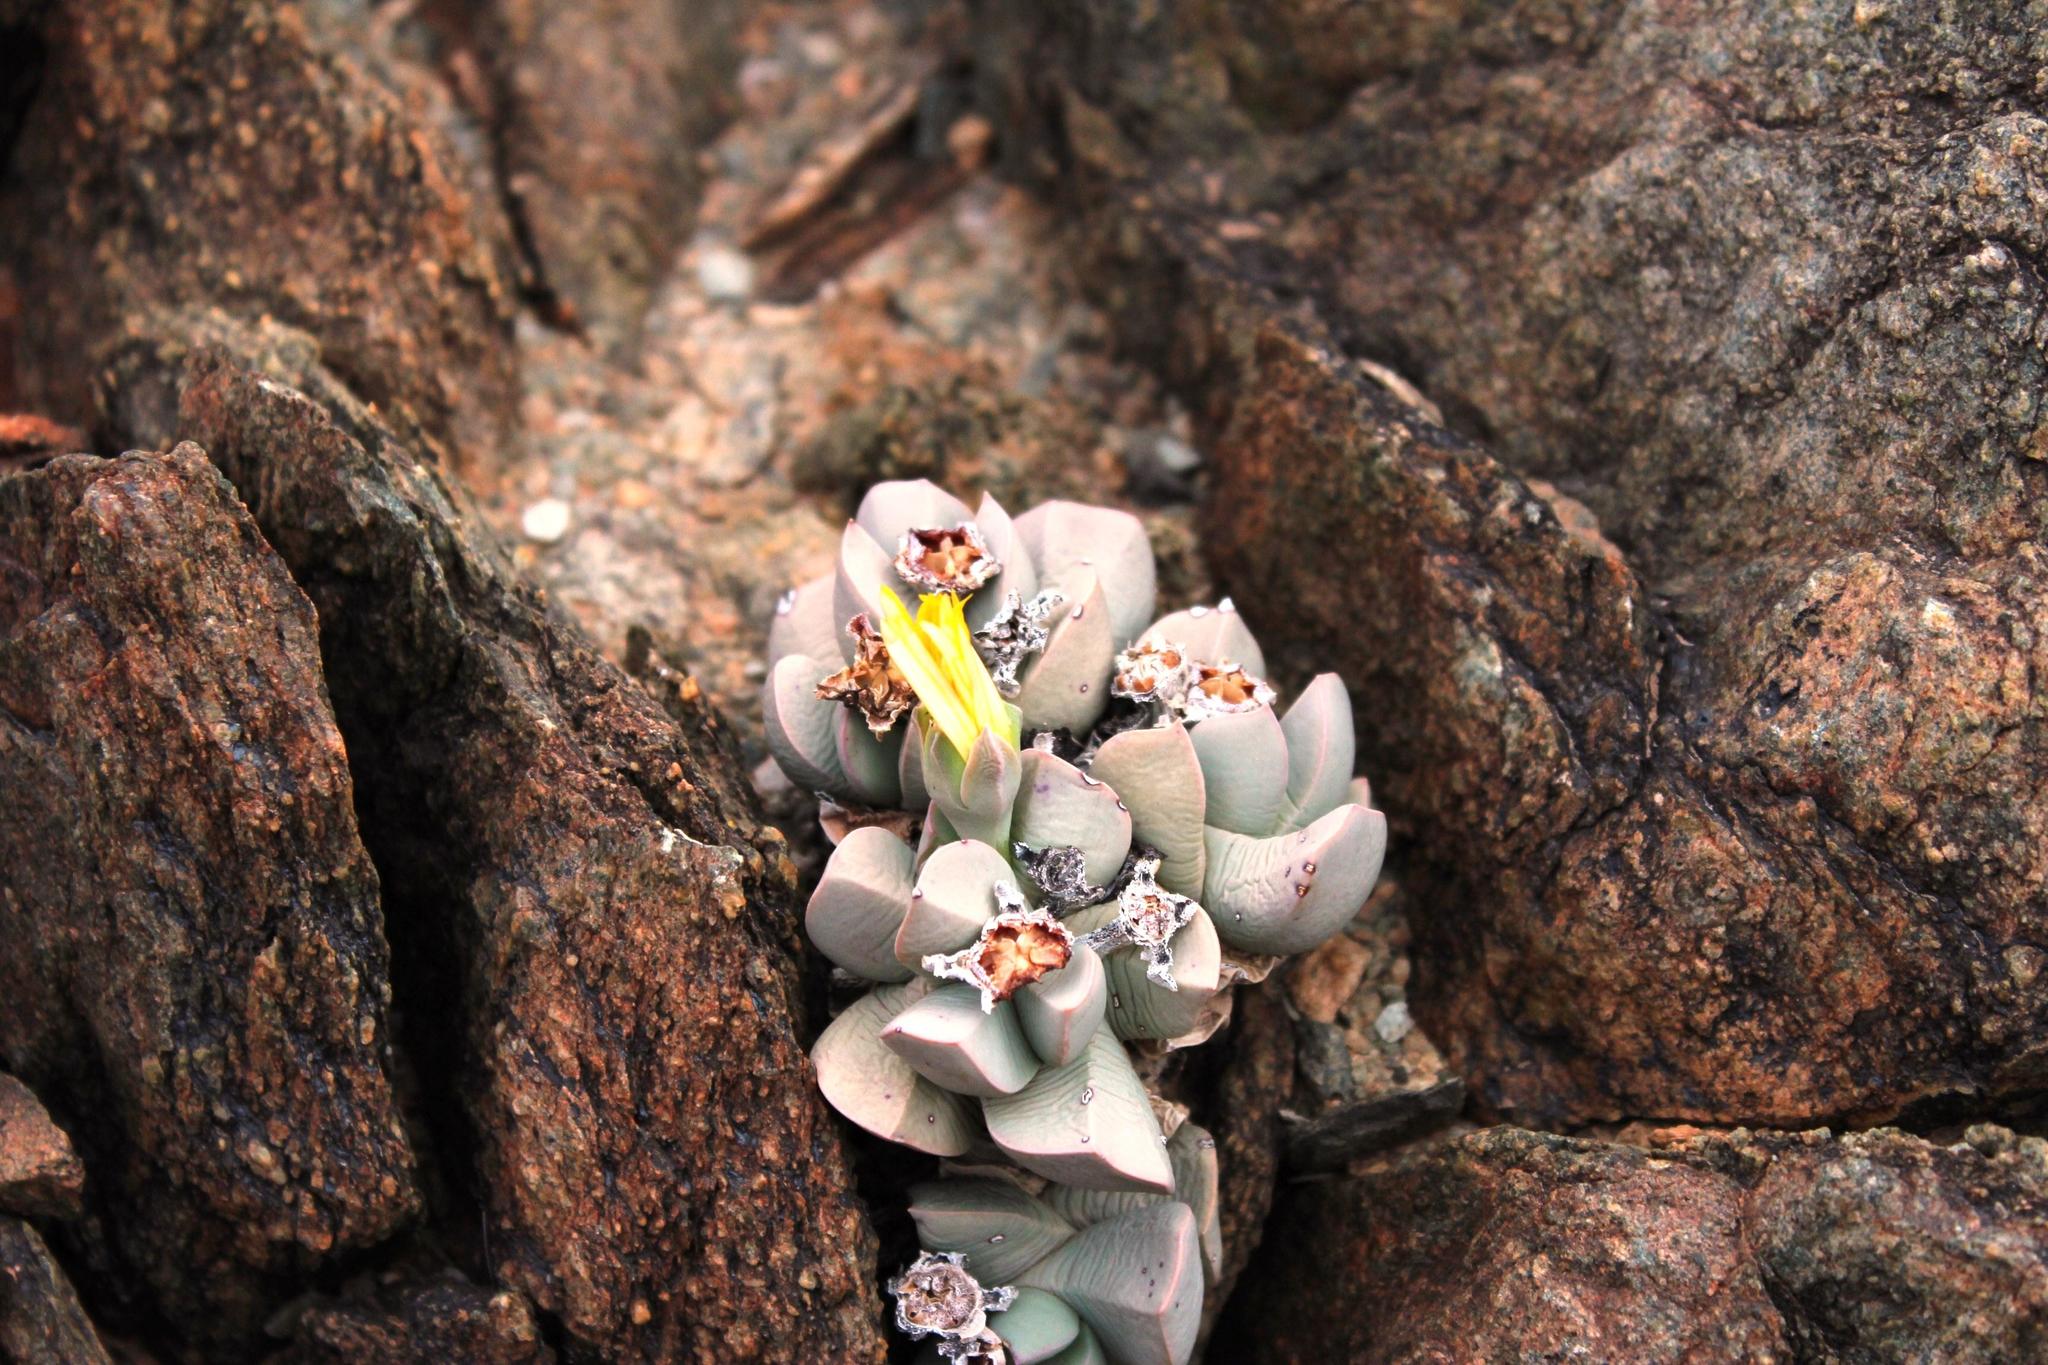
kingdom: Plantae
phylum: Tracheophyta
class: Magnoliopsida
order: Caryophyllales
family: Aizoaceae
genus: Schwantesia
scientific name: Schwantesia herrei
